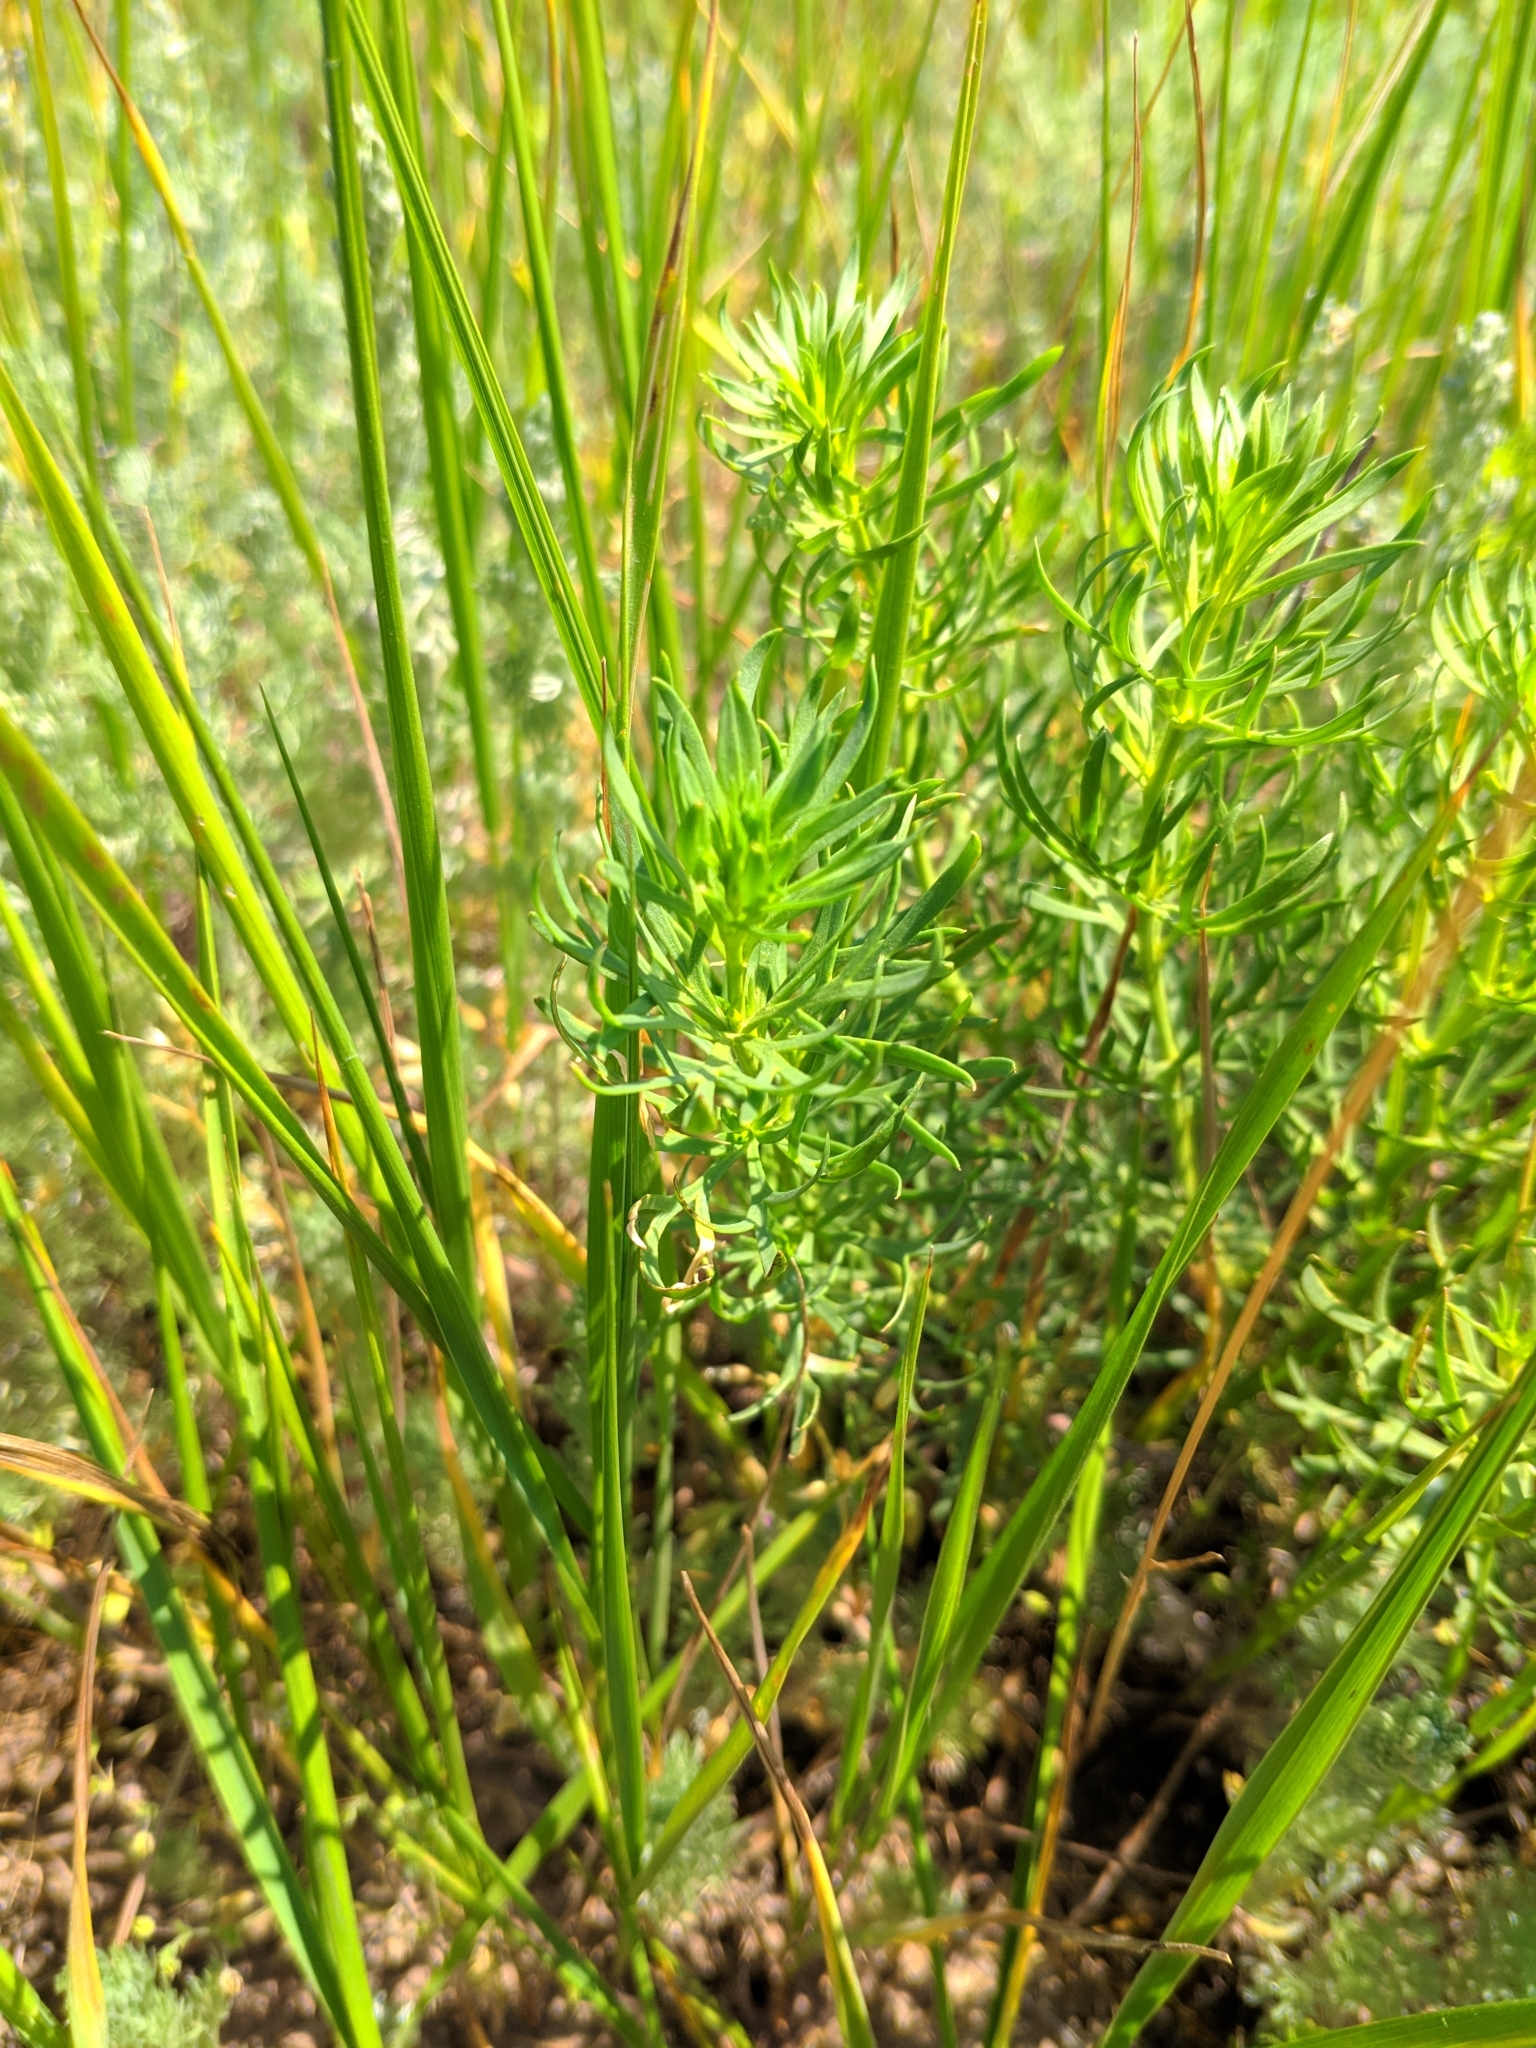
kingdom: Plantae
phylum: Tracheophyta
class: Magnoliopsida
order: Sapindales
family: Tetradiclidaceae
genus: Peganum
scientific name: Peganum harmala
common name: Harmal peganum
